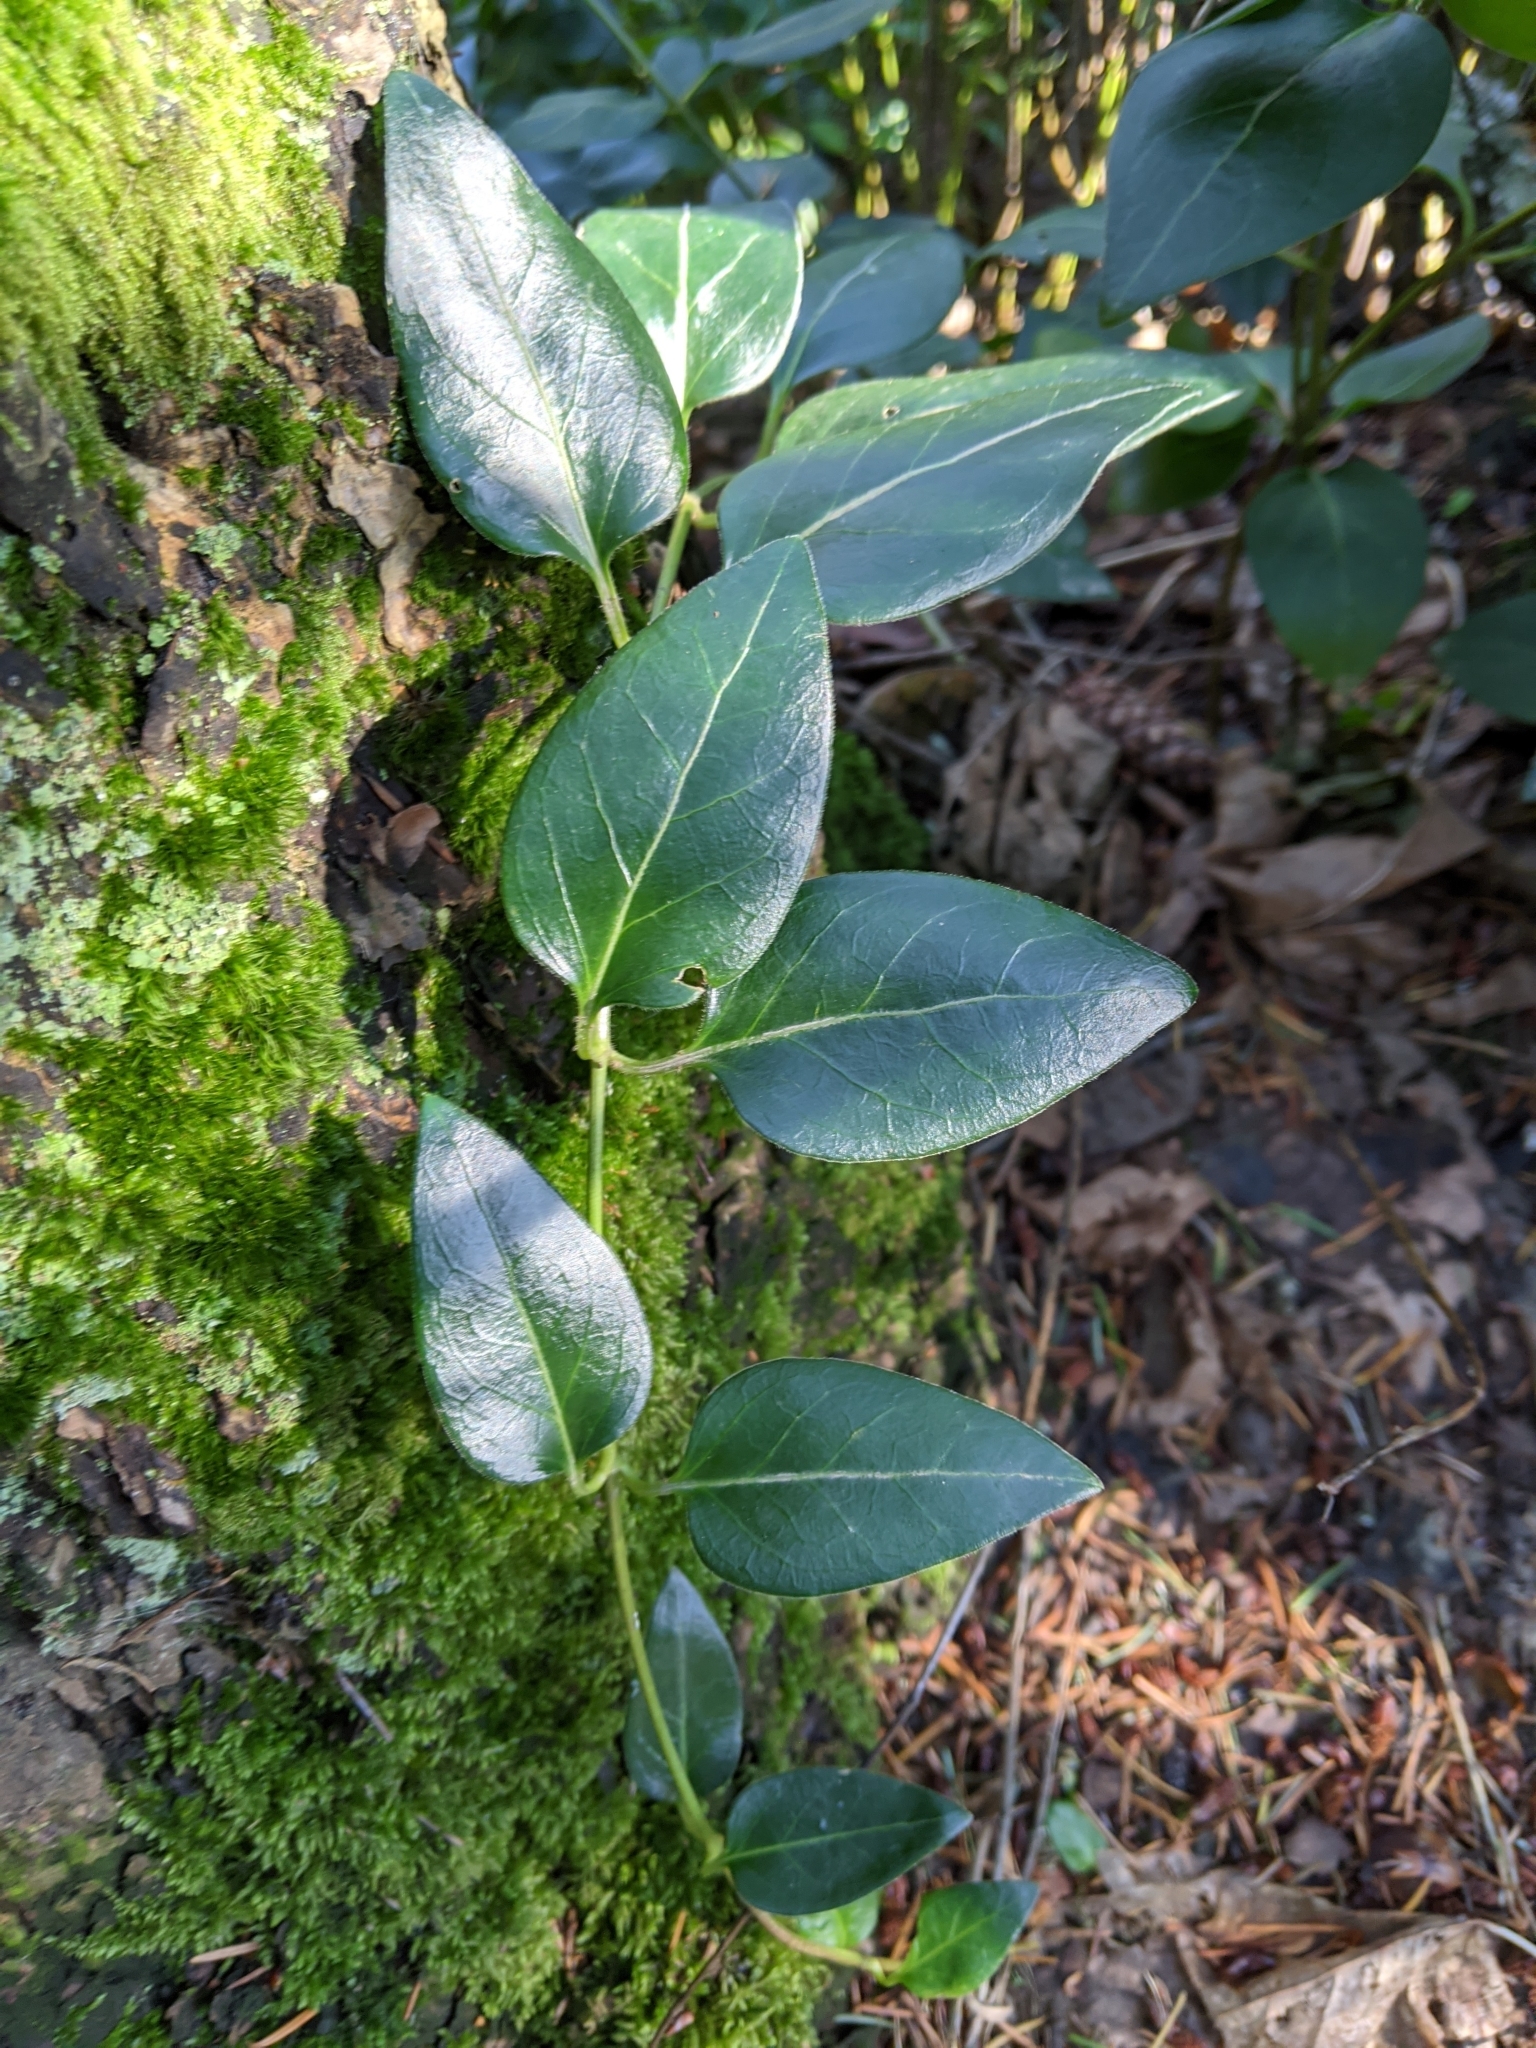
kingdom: Plantae
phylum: Tracheophyta
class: Magnoliopsida
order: Gentianales
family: Apocynaceae
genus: Vinca
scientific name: Vinca major
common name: Greater periwinkle
